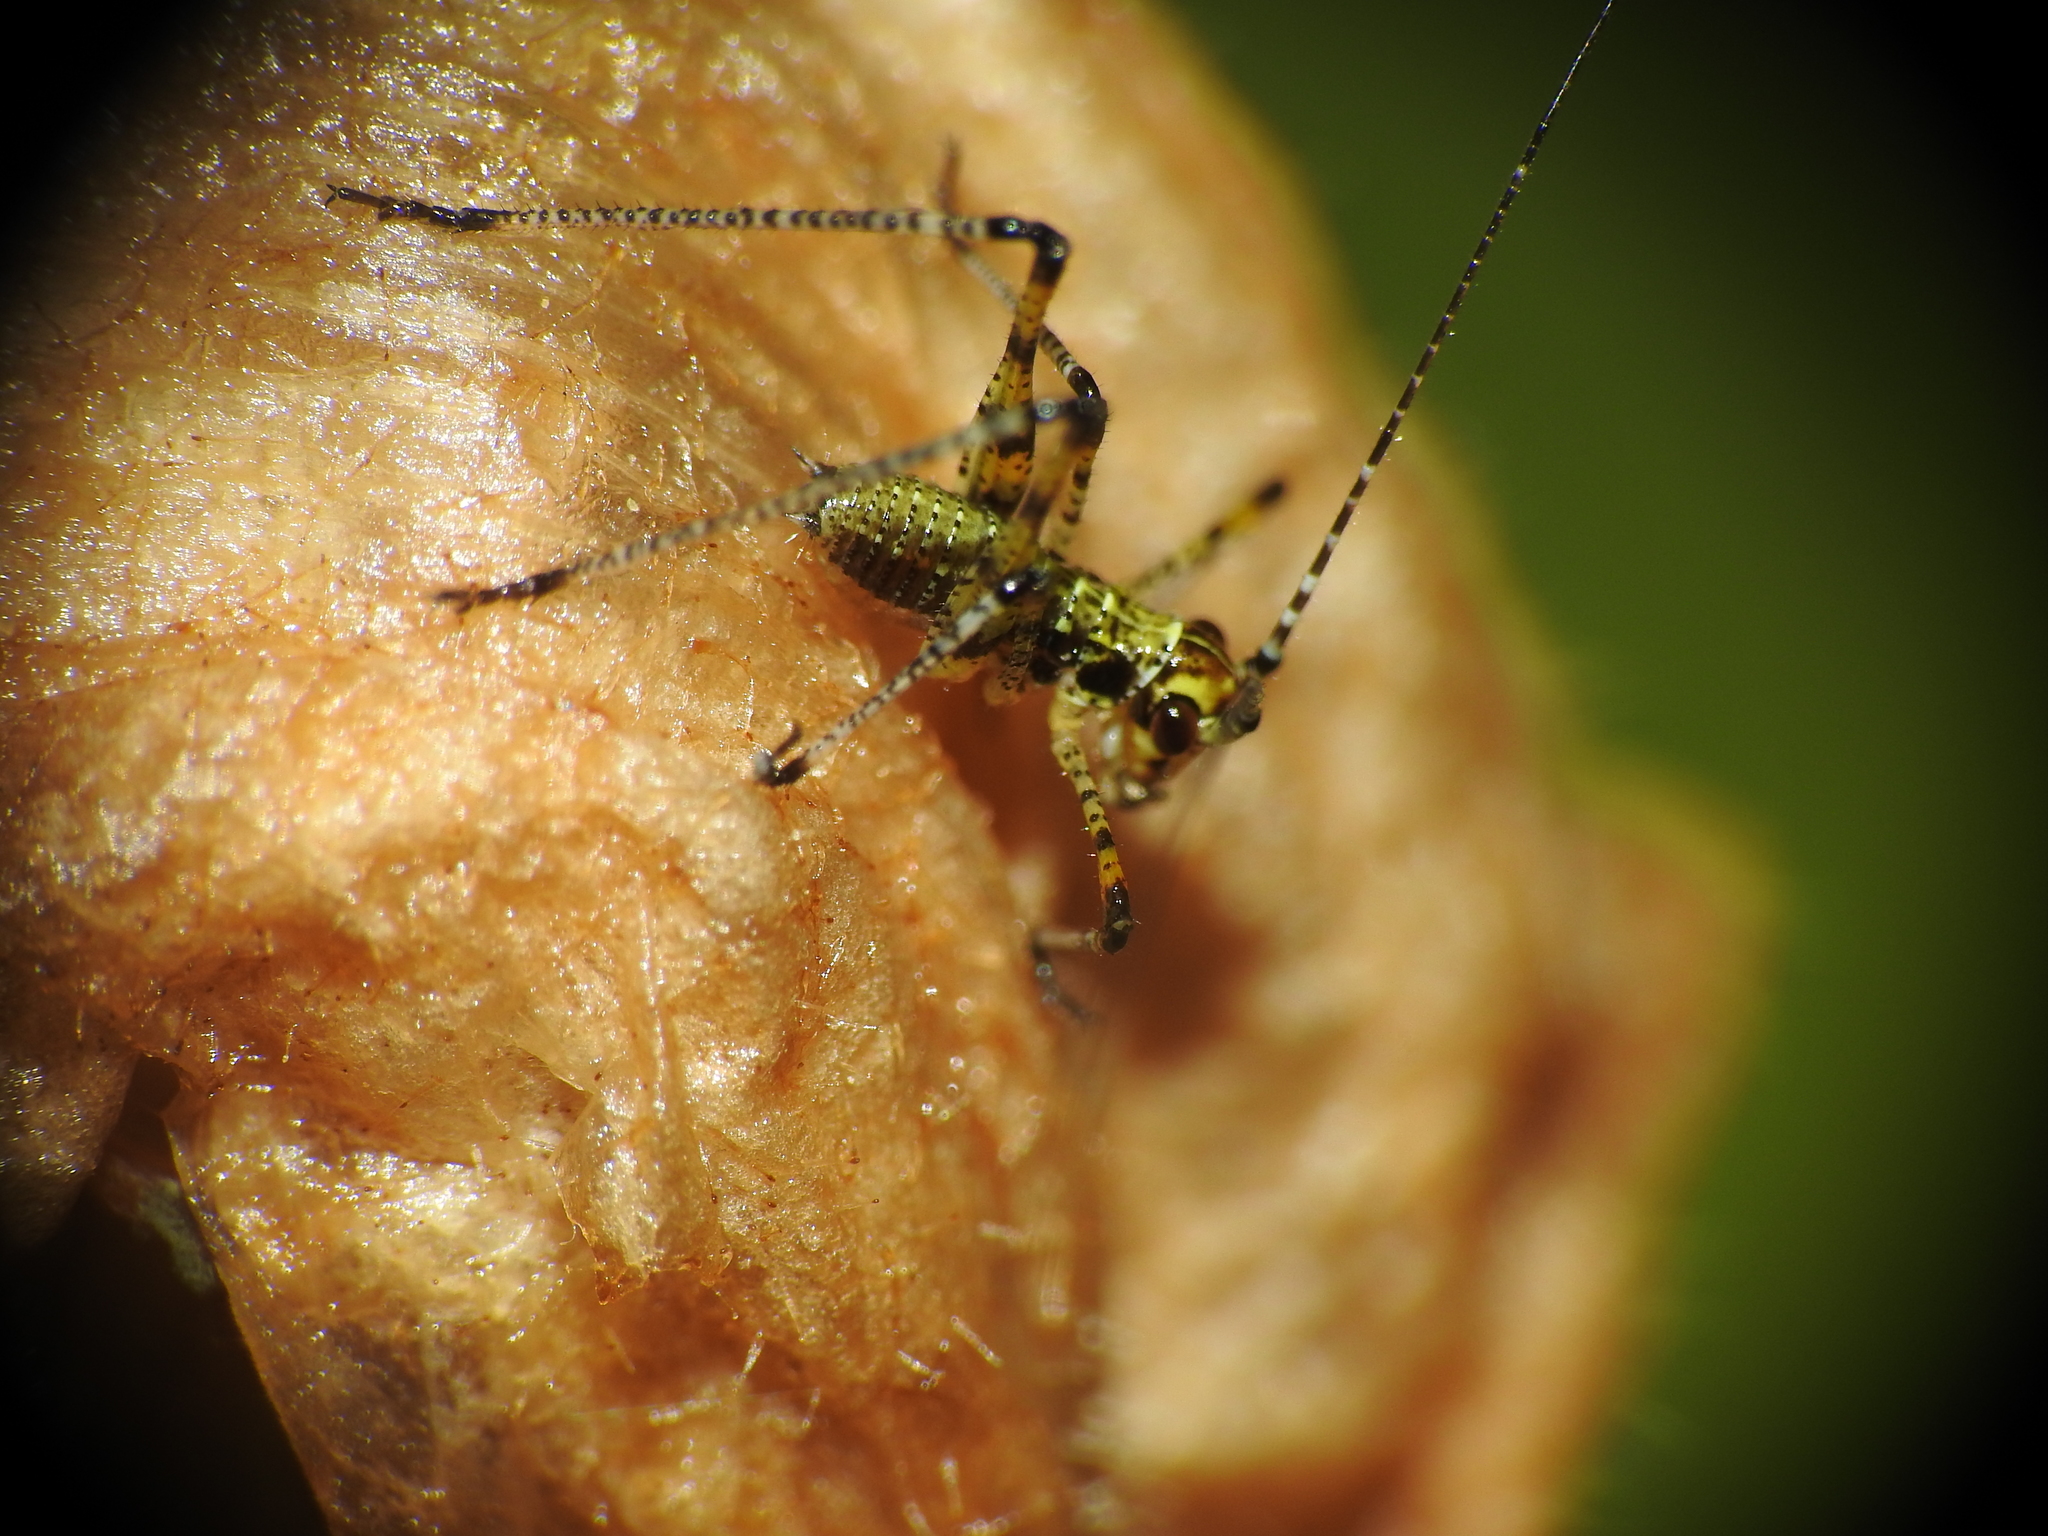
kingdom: Animalia
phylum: Arthropoda
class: Insecta
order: Orthoptera
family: Tettigoniidae
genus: Phaneroptera
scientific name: Phaneroptera nana
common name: Southern sickle bush-cricket
